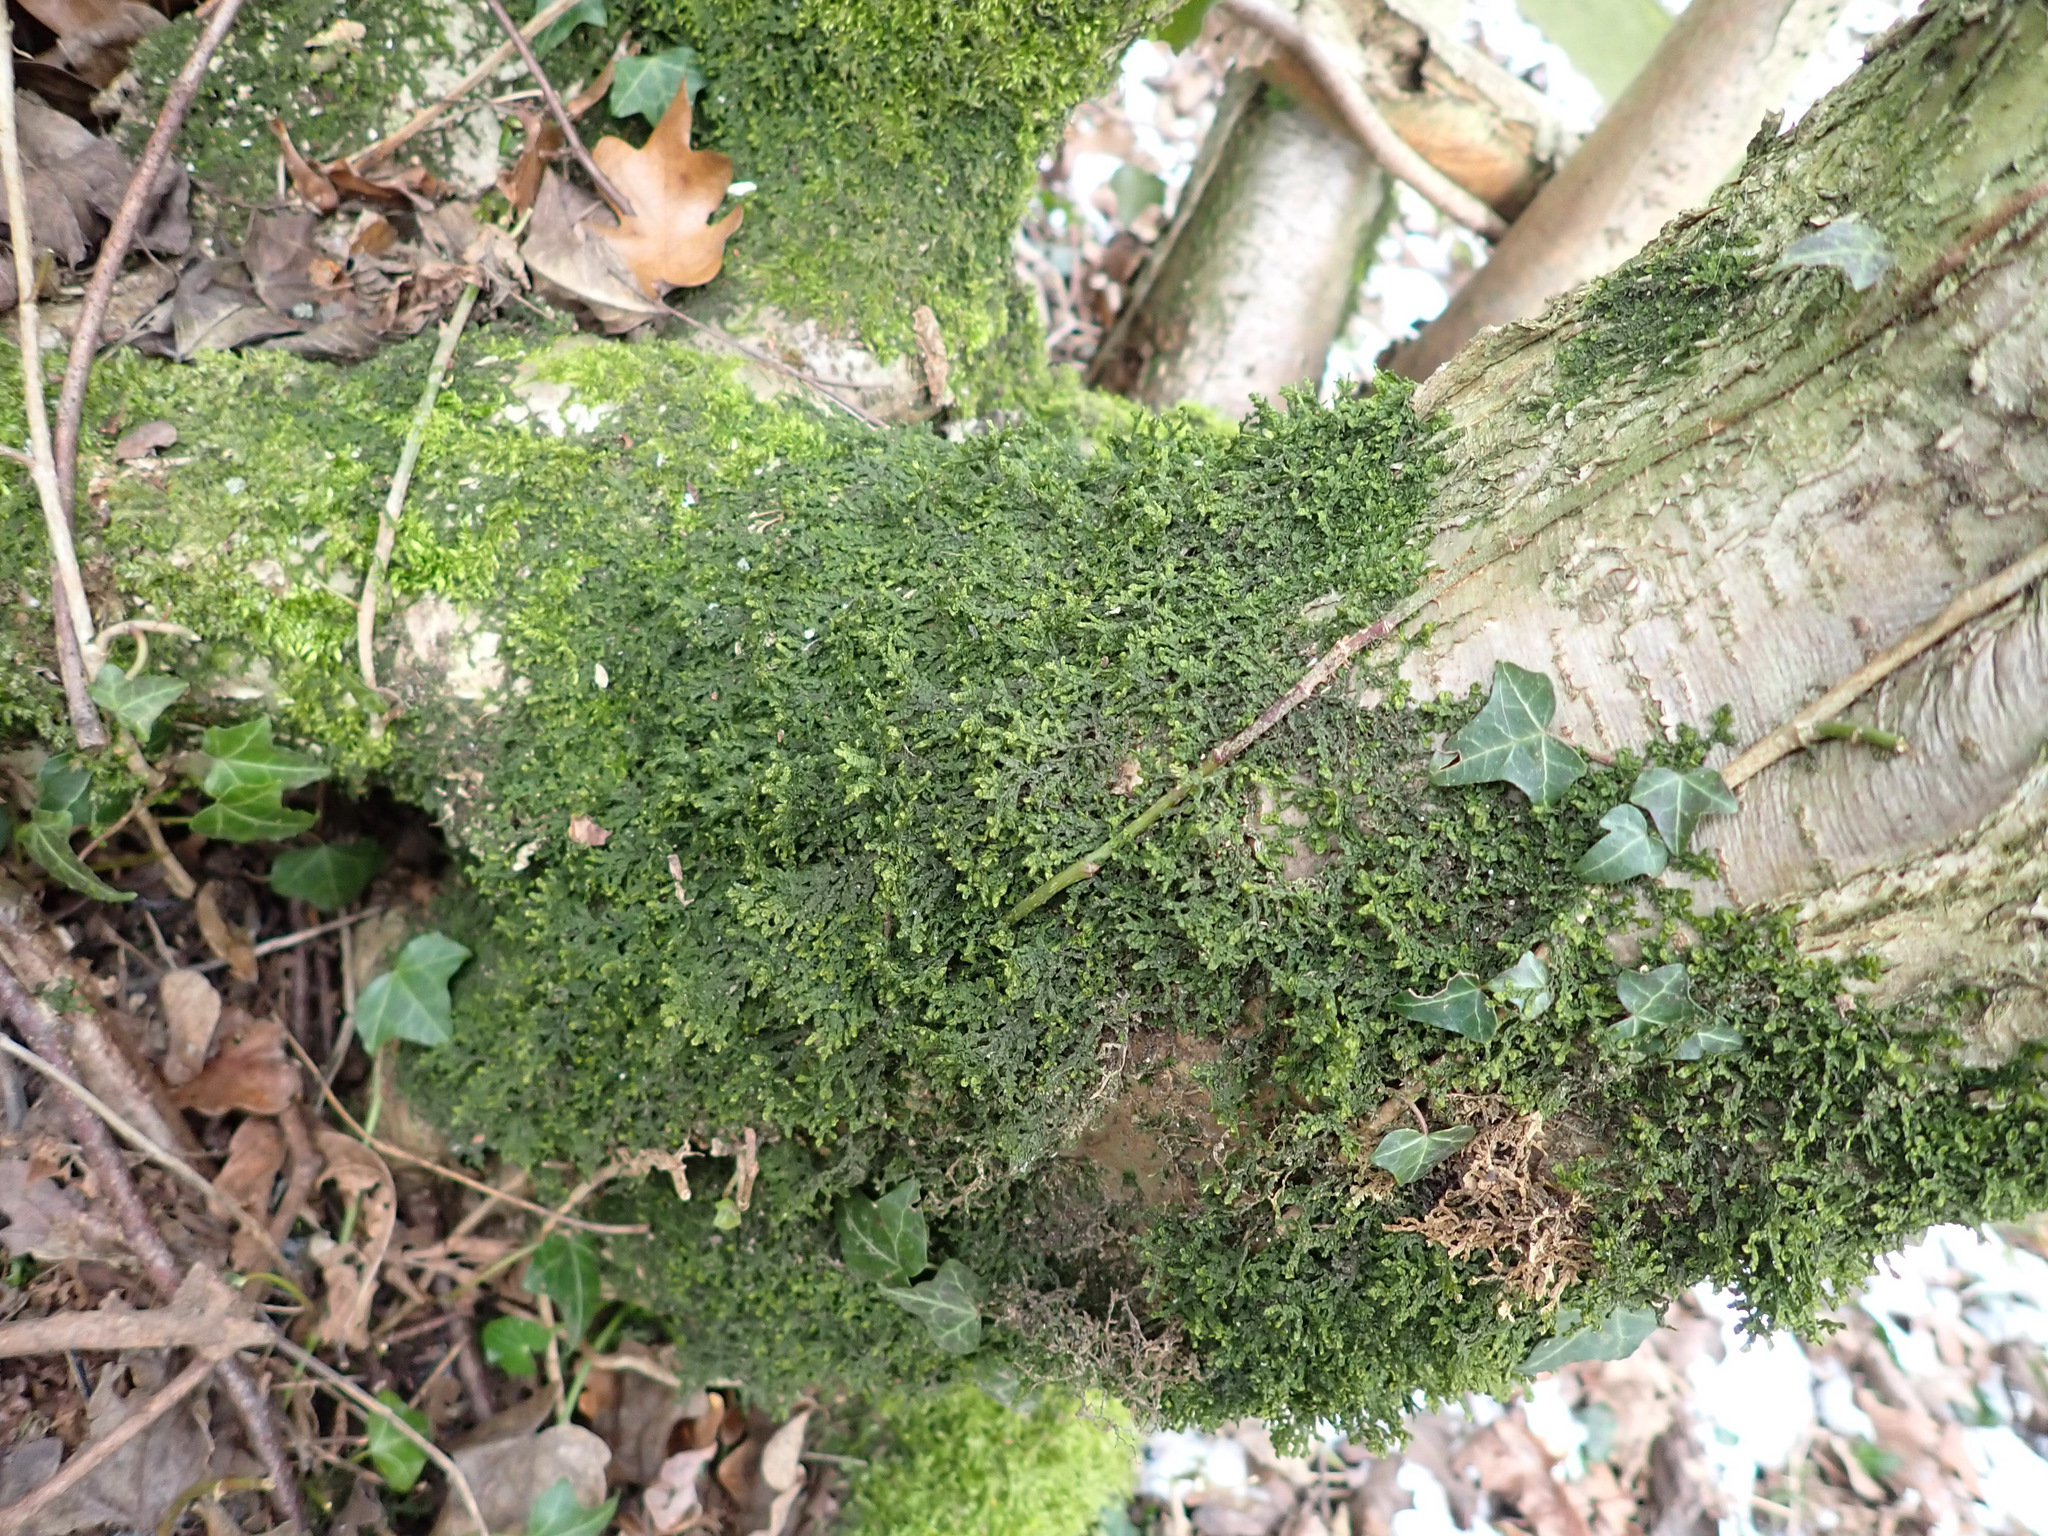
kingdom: Plantae
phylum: Marchantiophyta
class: Jungermanniopsida
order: Porellales
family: Porellaceae
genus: Porella
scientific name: Porella platyphylla
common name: Wall scalewort
